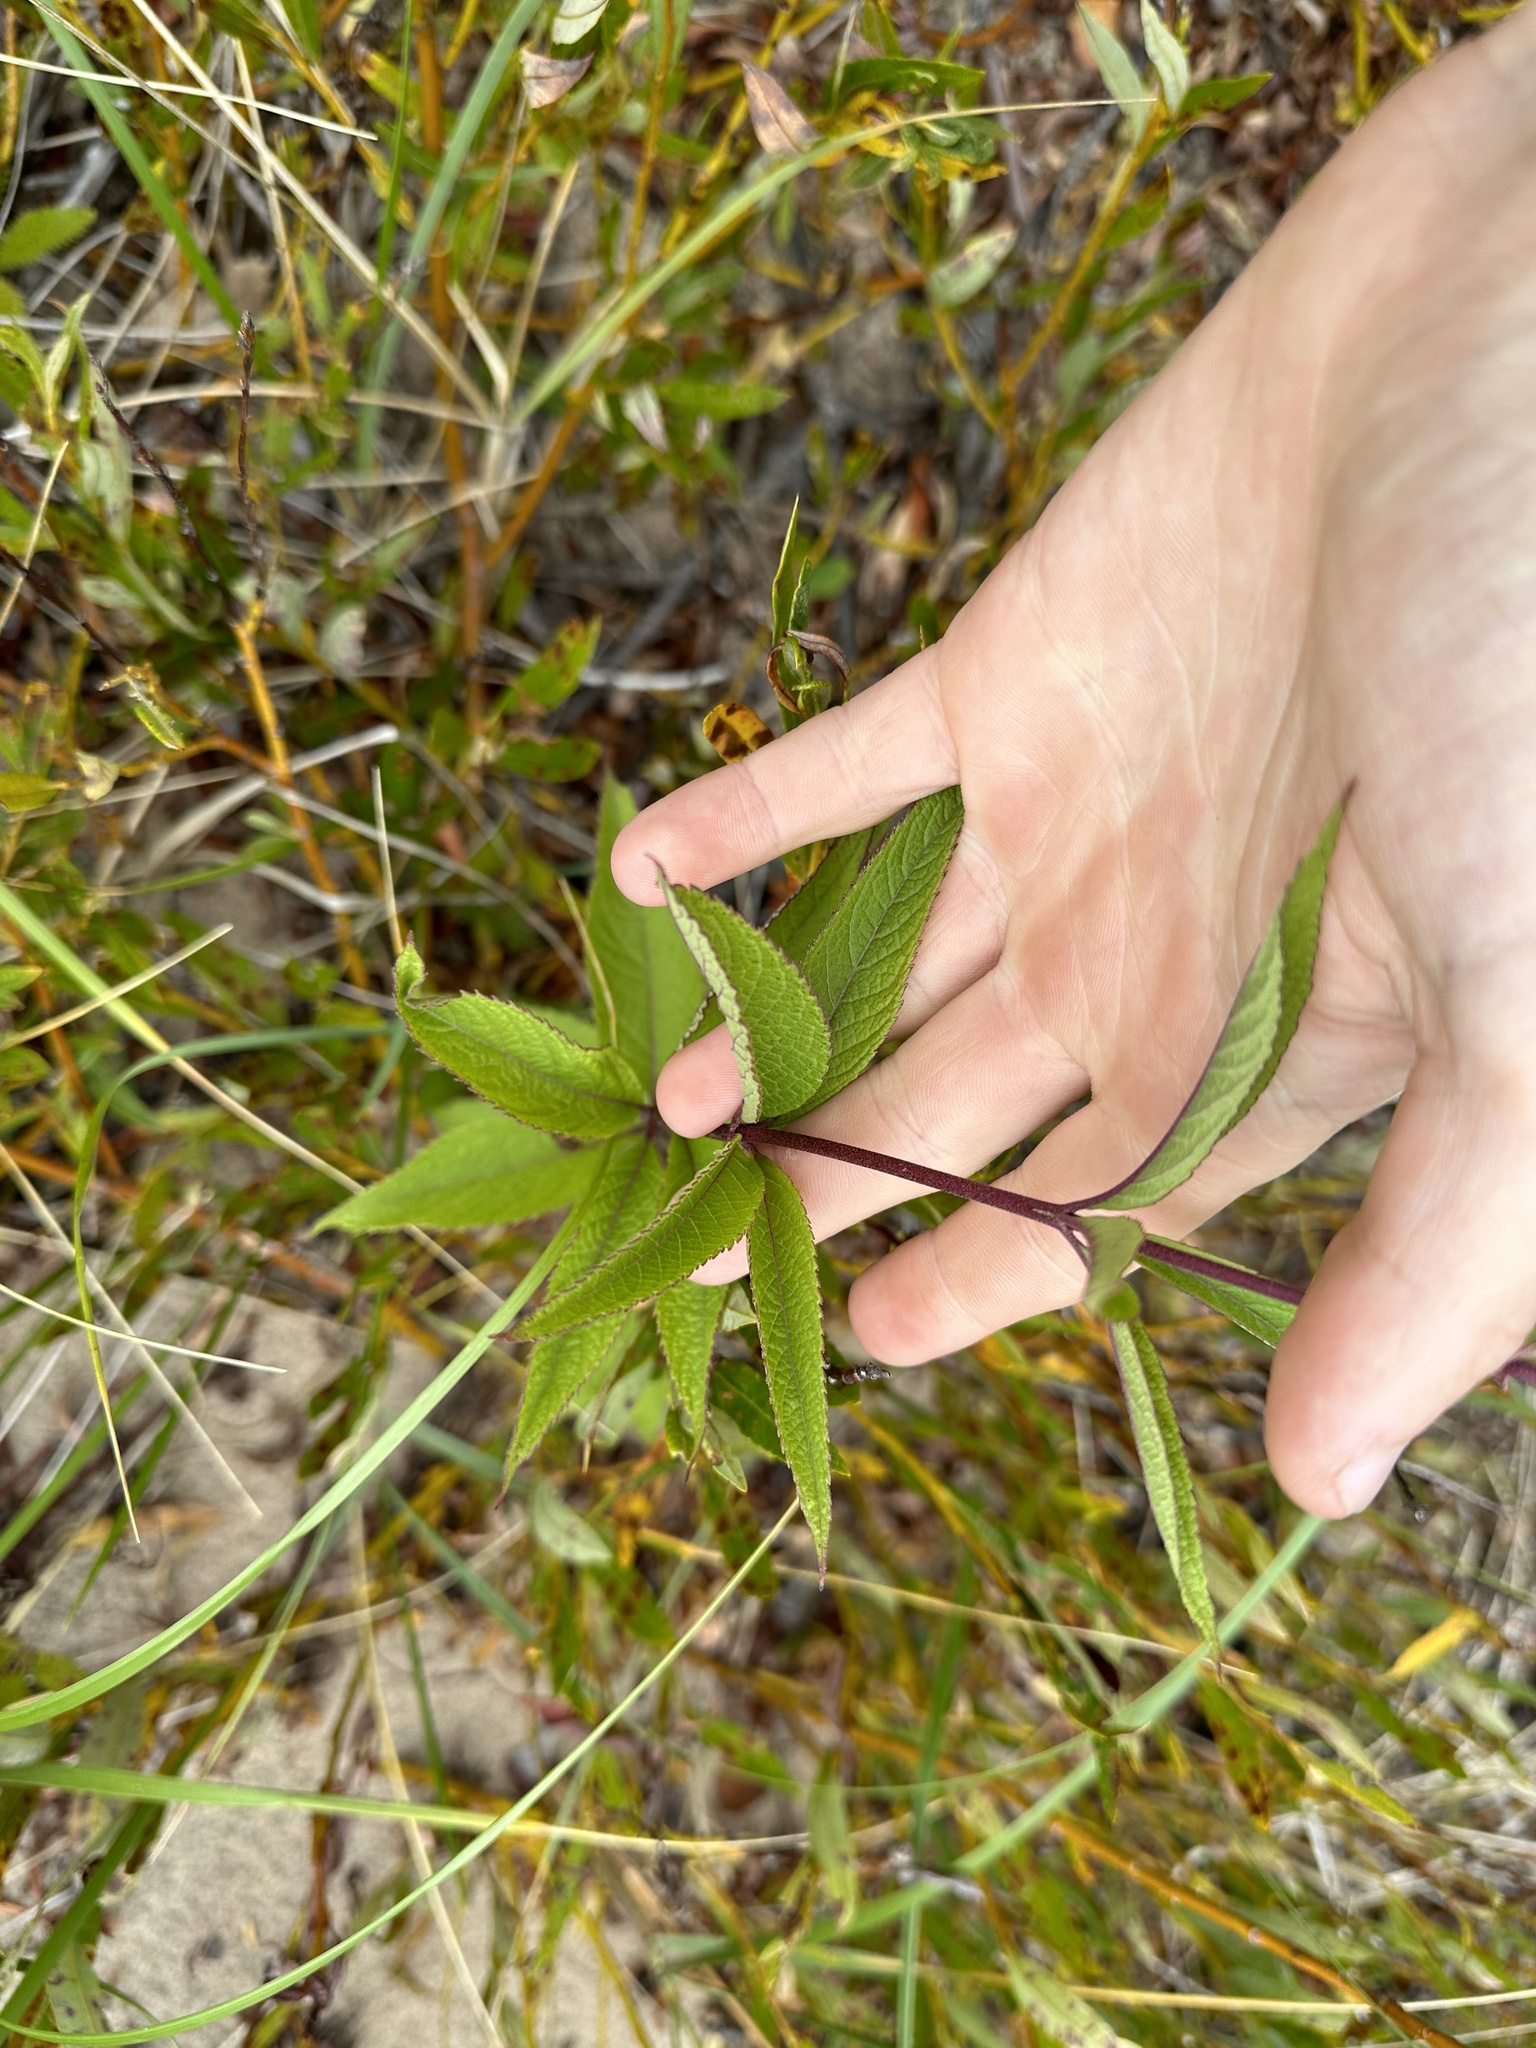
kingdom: Plantae
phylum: Tracheophyta
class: Magnoliopsida
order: Asterales
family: Asteraceae
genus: Eutrochium
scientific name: Eutrochium maculatum
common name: Spotted joe pye weed
